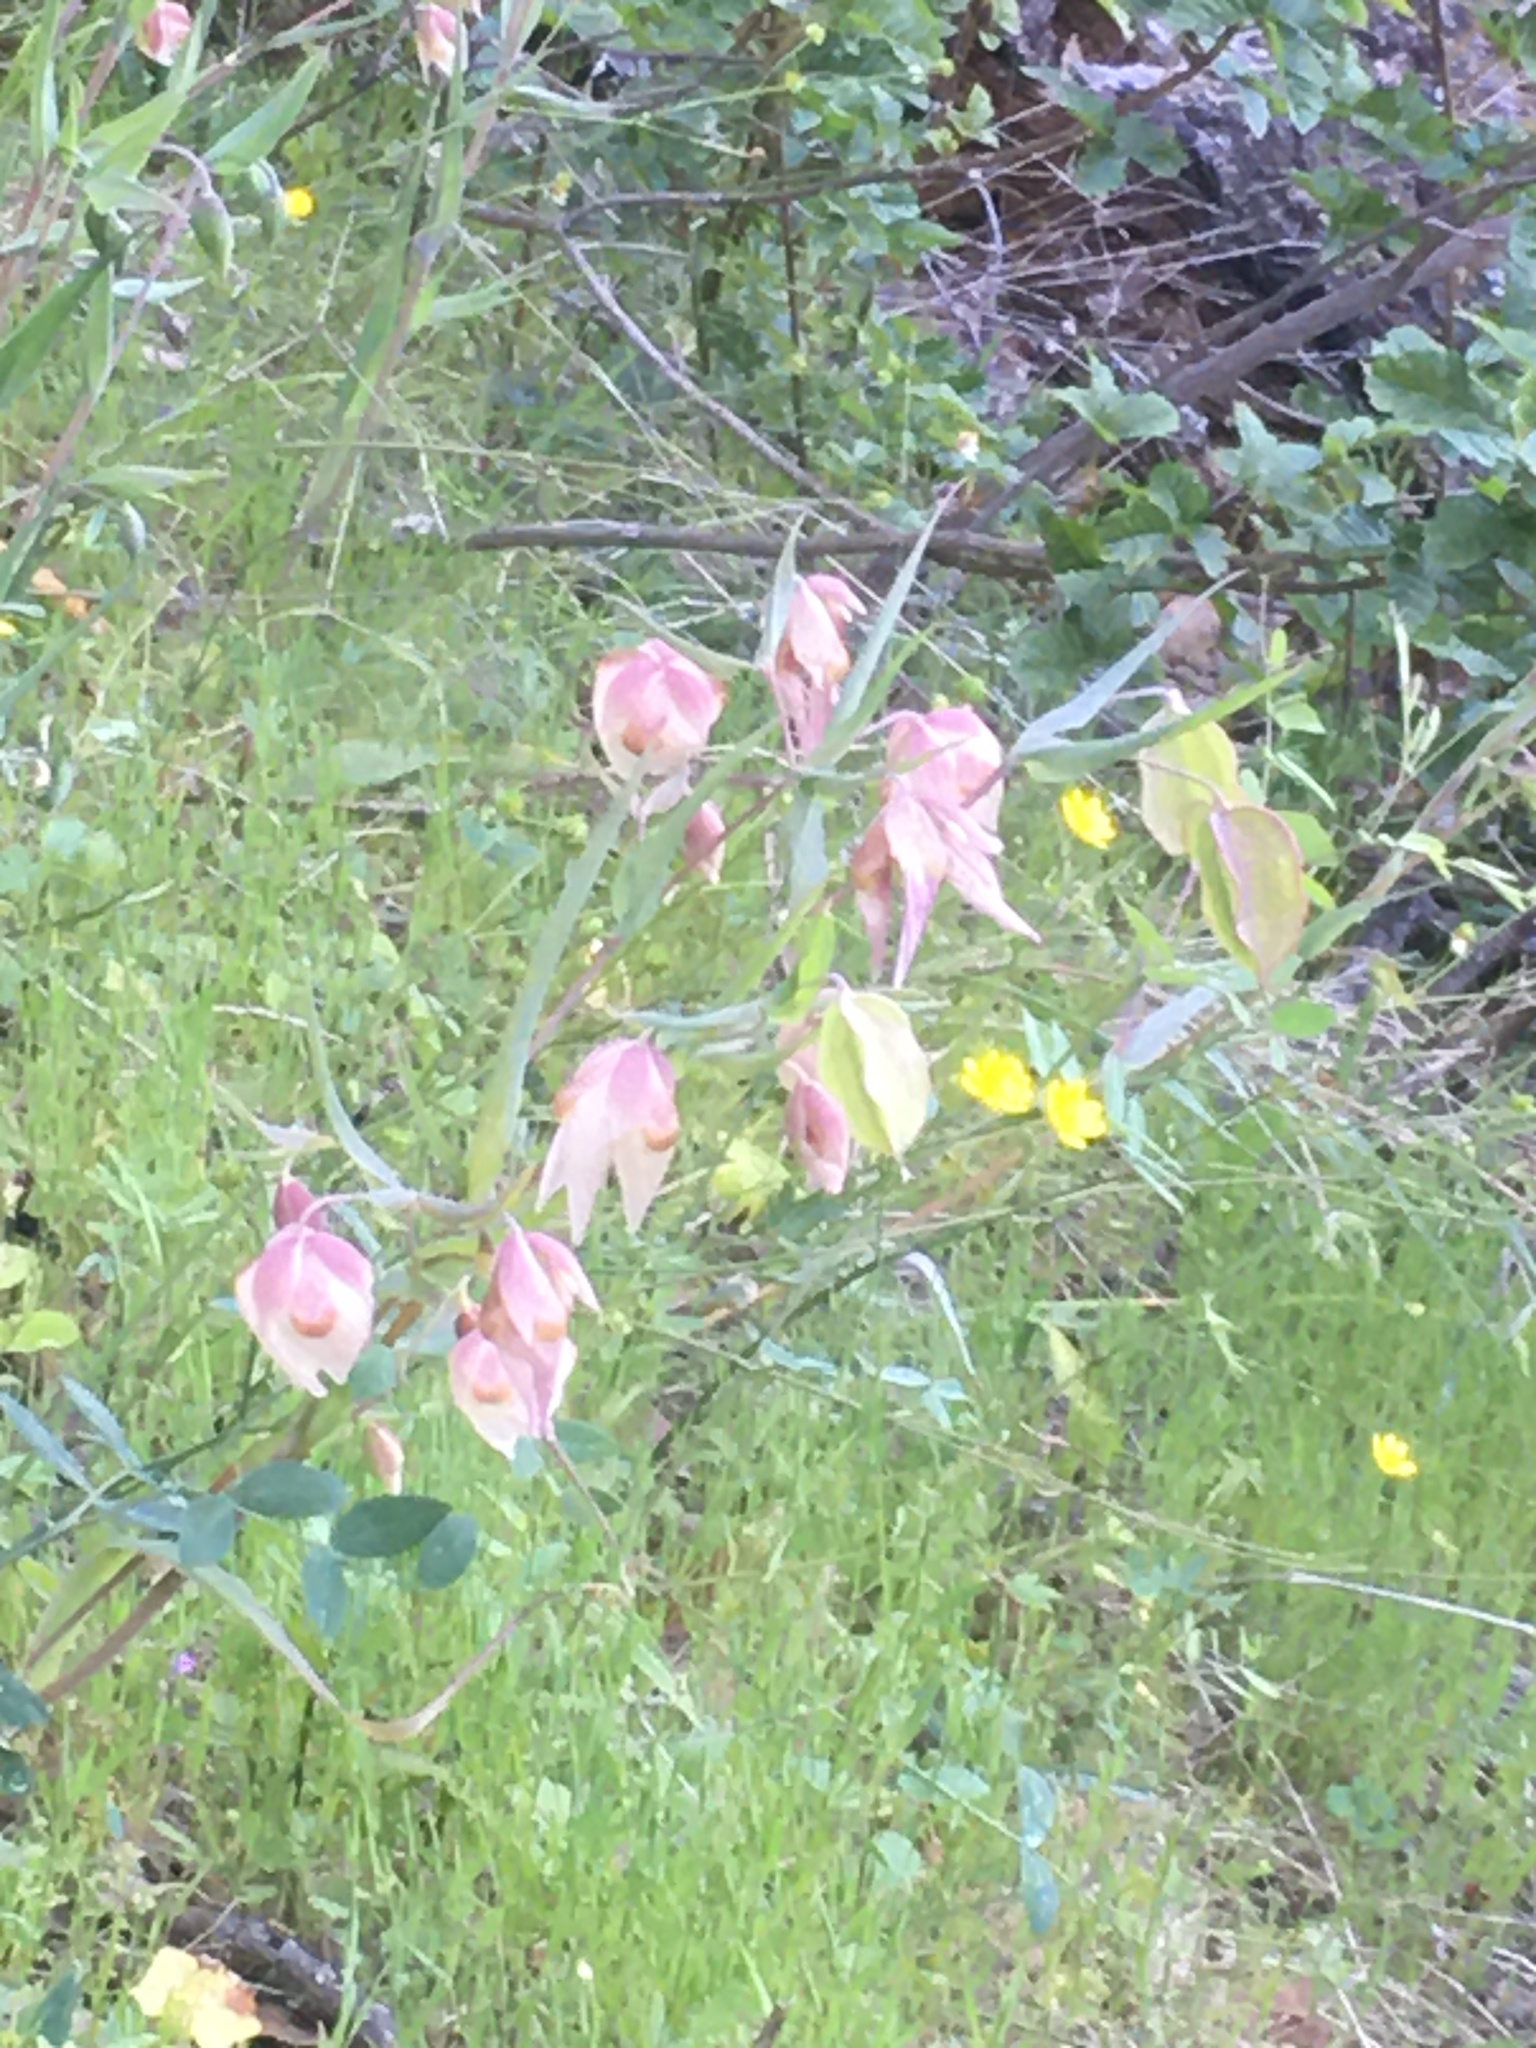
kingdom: Plantae
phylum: Tracheophyta
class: Liliopsida
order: Liliales
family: Liliaceae
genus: Calochortus
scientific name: Calochortus albus
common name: Fairy-lantern
